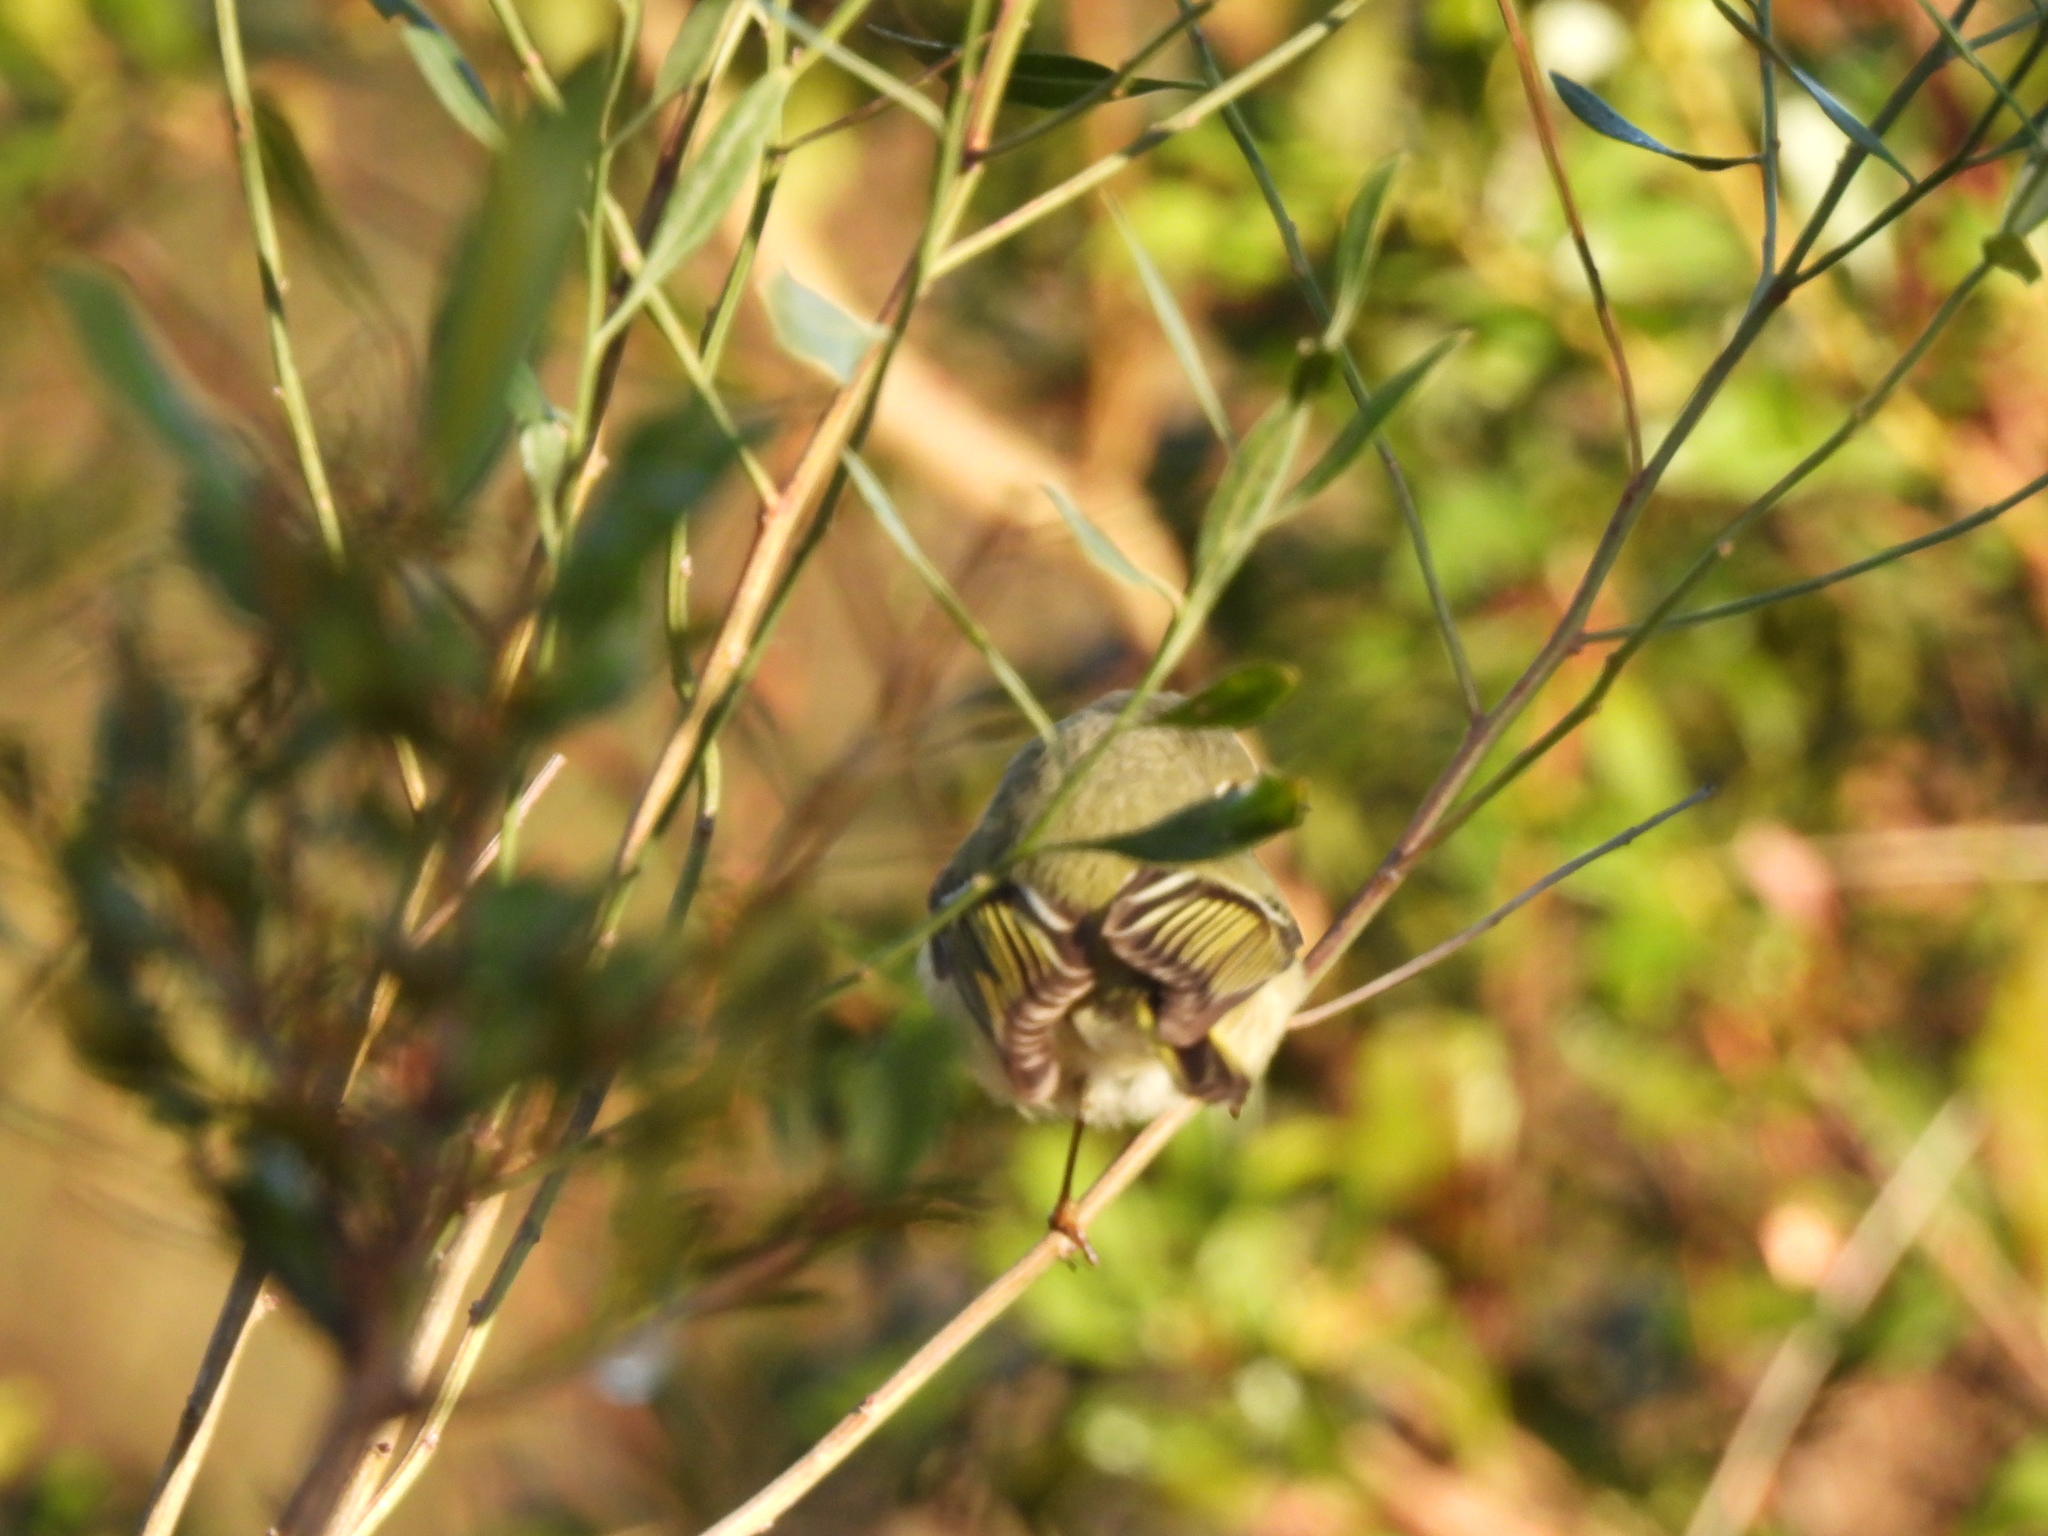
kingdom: Animalia
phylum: Chordata
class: Aves
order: Passeriformes
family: Regulidae
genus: Regulus
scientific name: Regulus calendula
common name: Ruby-crowned kinglet
